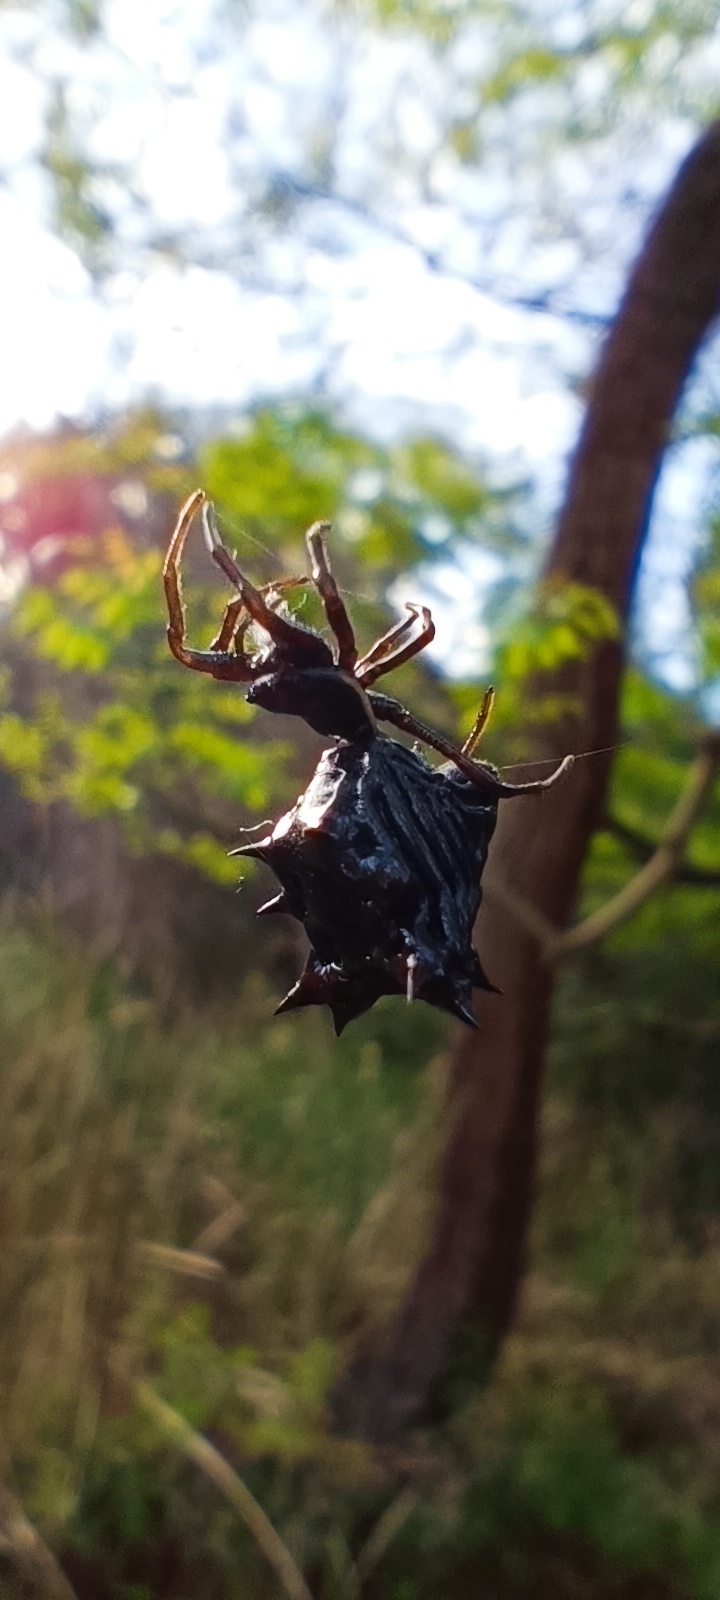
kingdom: Animalia
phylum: Arthropoda
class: Arachnida
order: Araneae
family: Araneidae
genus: Micrathena
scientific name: Micrathena gracilis
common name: Orb weavers
